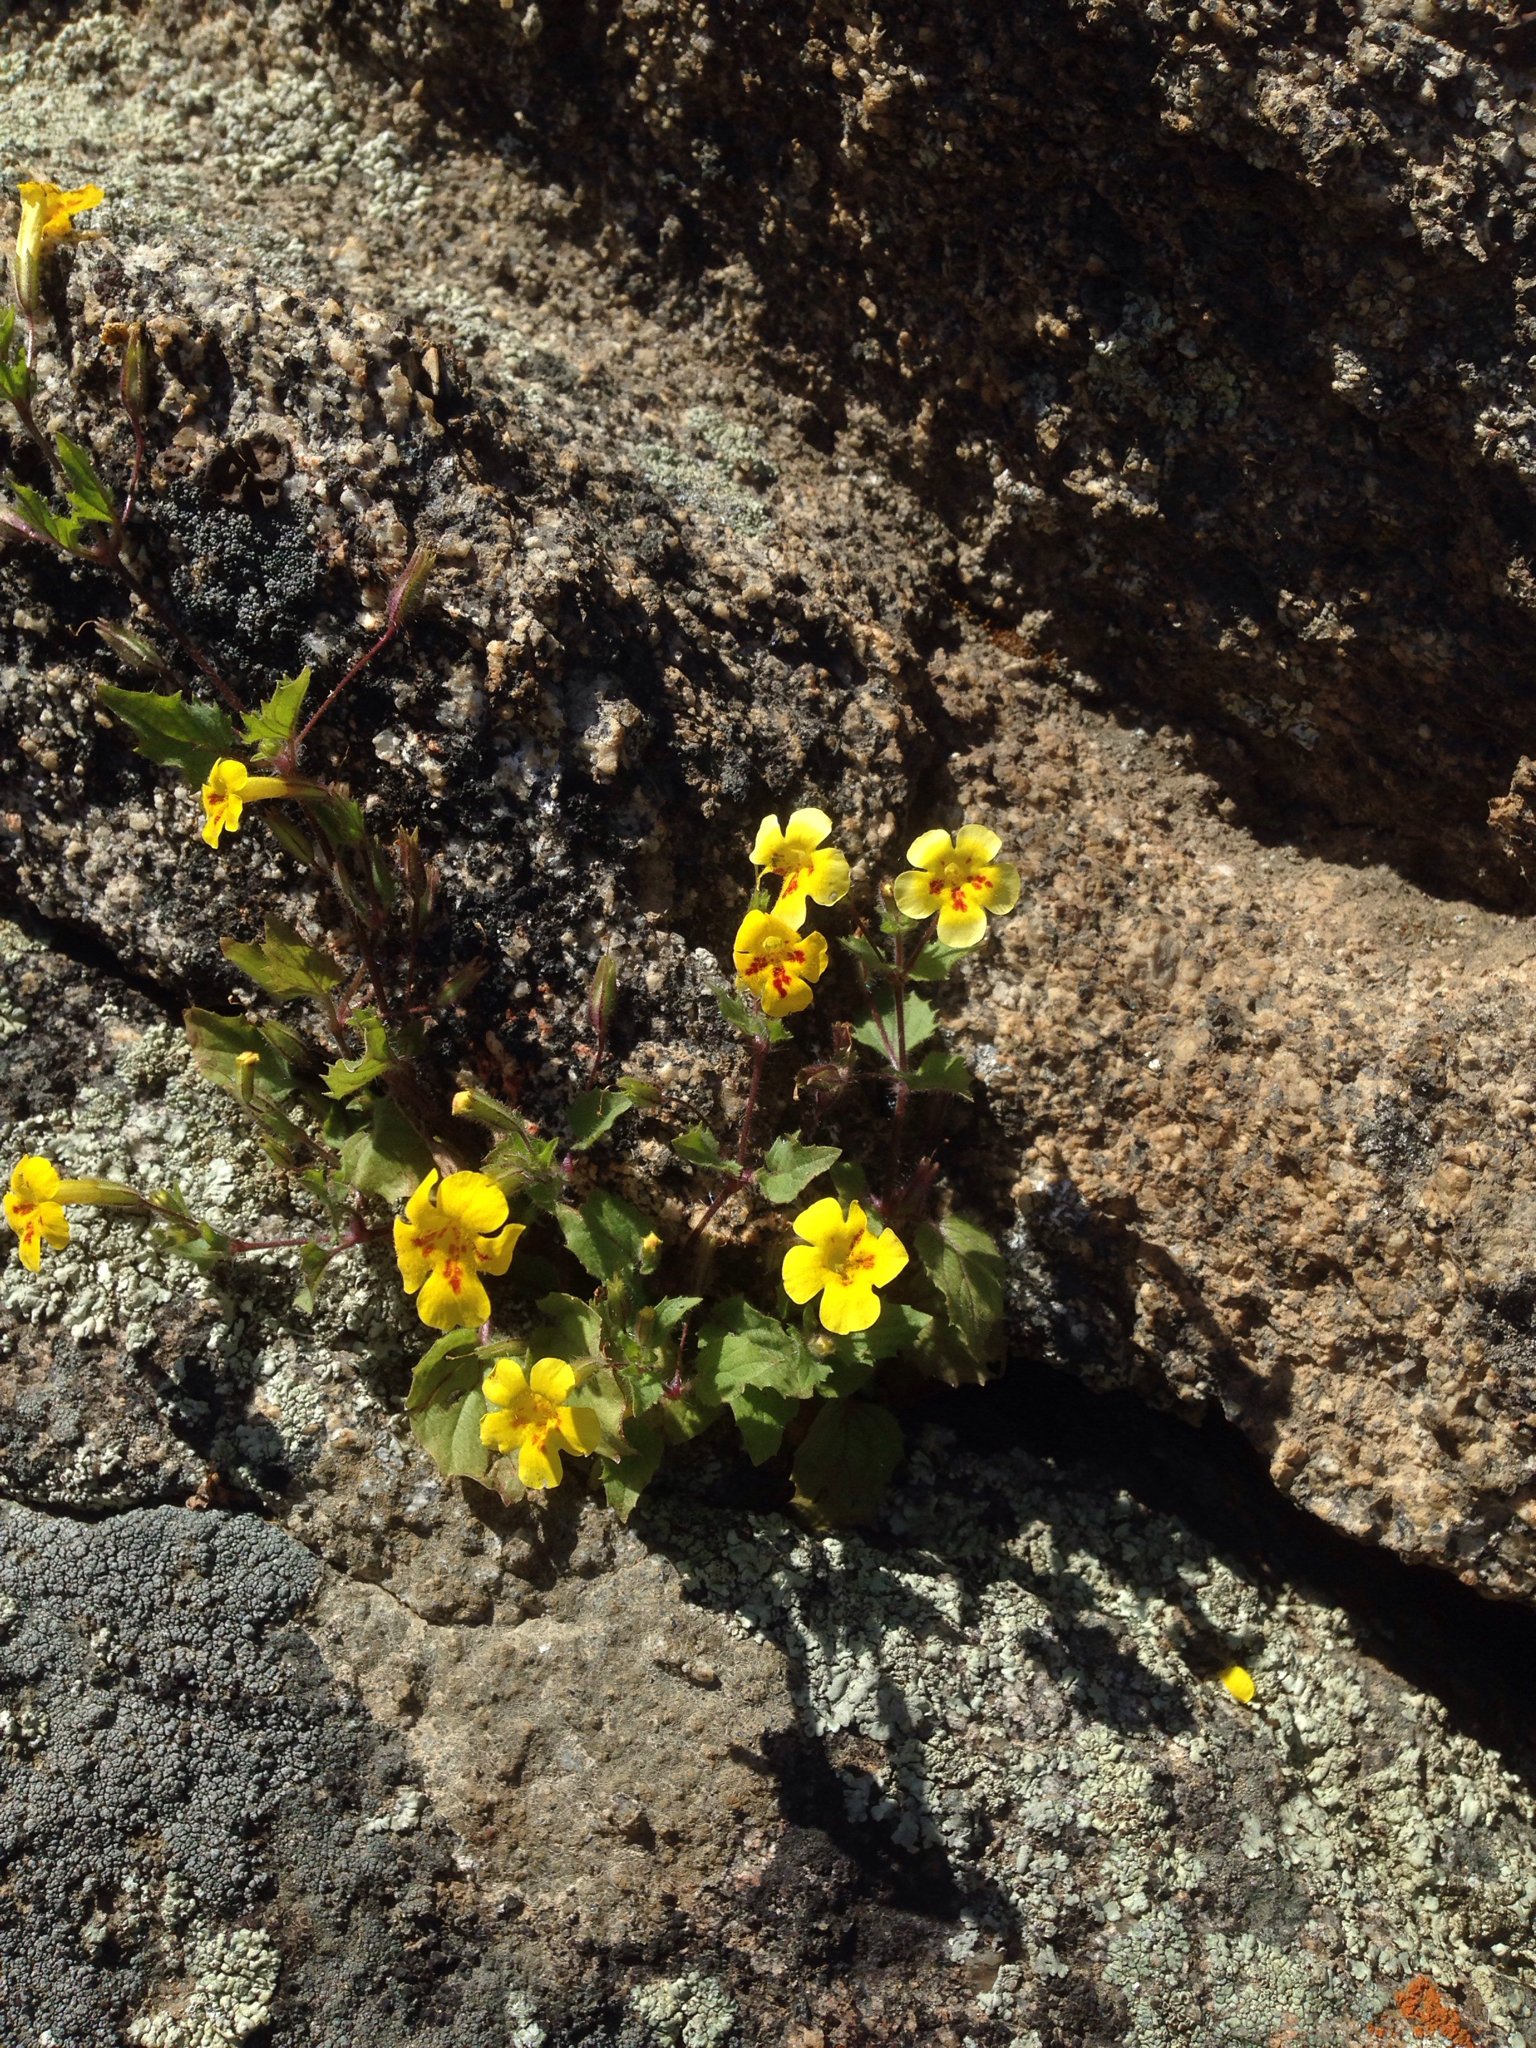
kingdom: Plantae
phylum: Tracheophyta
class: Magnoliopsida
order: Lamiales
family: Phrymaceae
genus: Erythranthe
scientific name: Erythranthe geniculata
